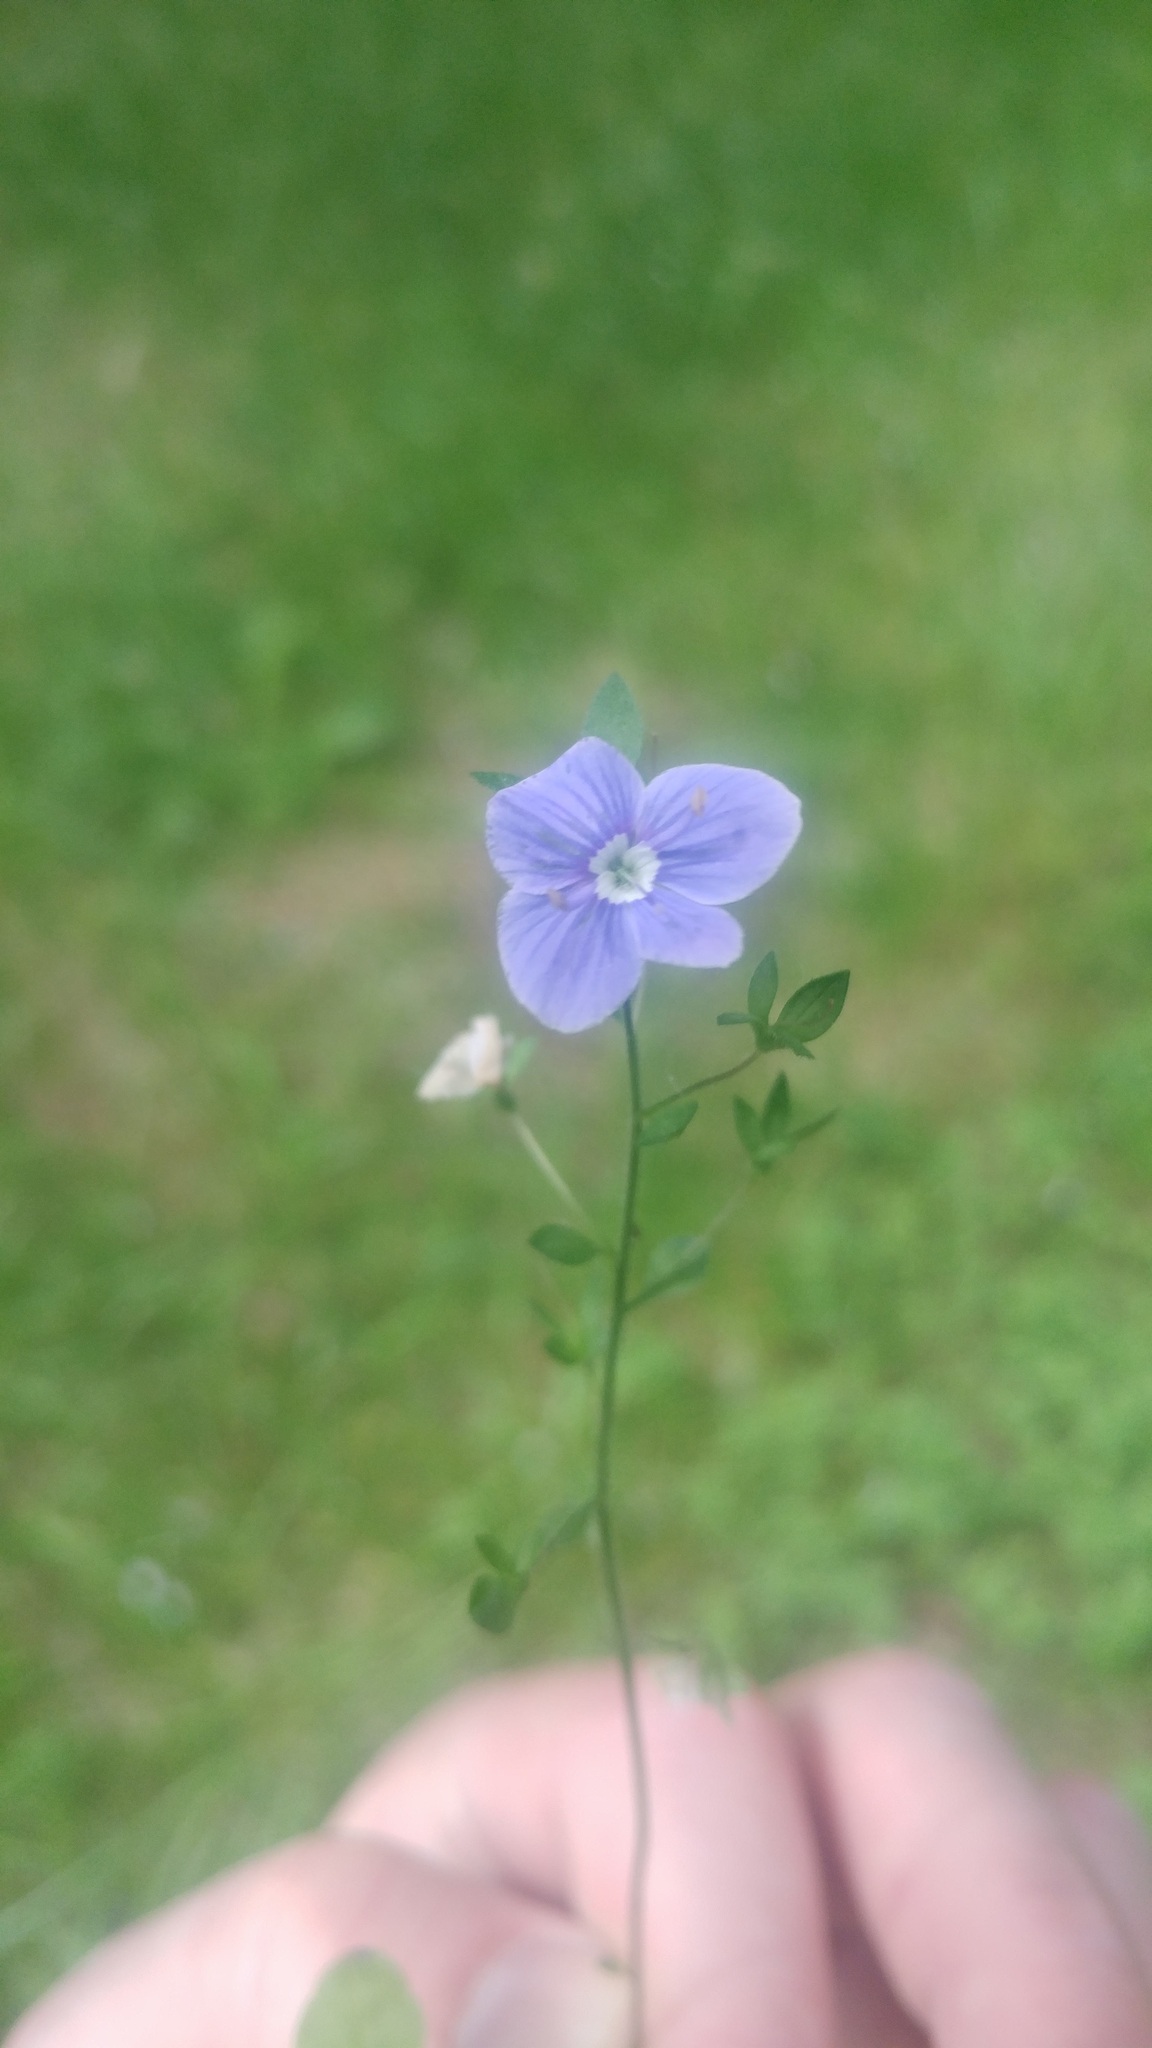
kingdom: Plantae
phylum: Tracheophyta
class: Magnoliopsida
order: Lamiales
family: Plantaginaceae
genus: Veronica
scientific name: Veronica chamaedrys
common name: Germander speedwell
